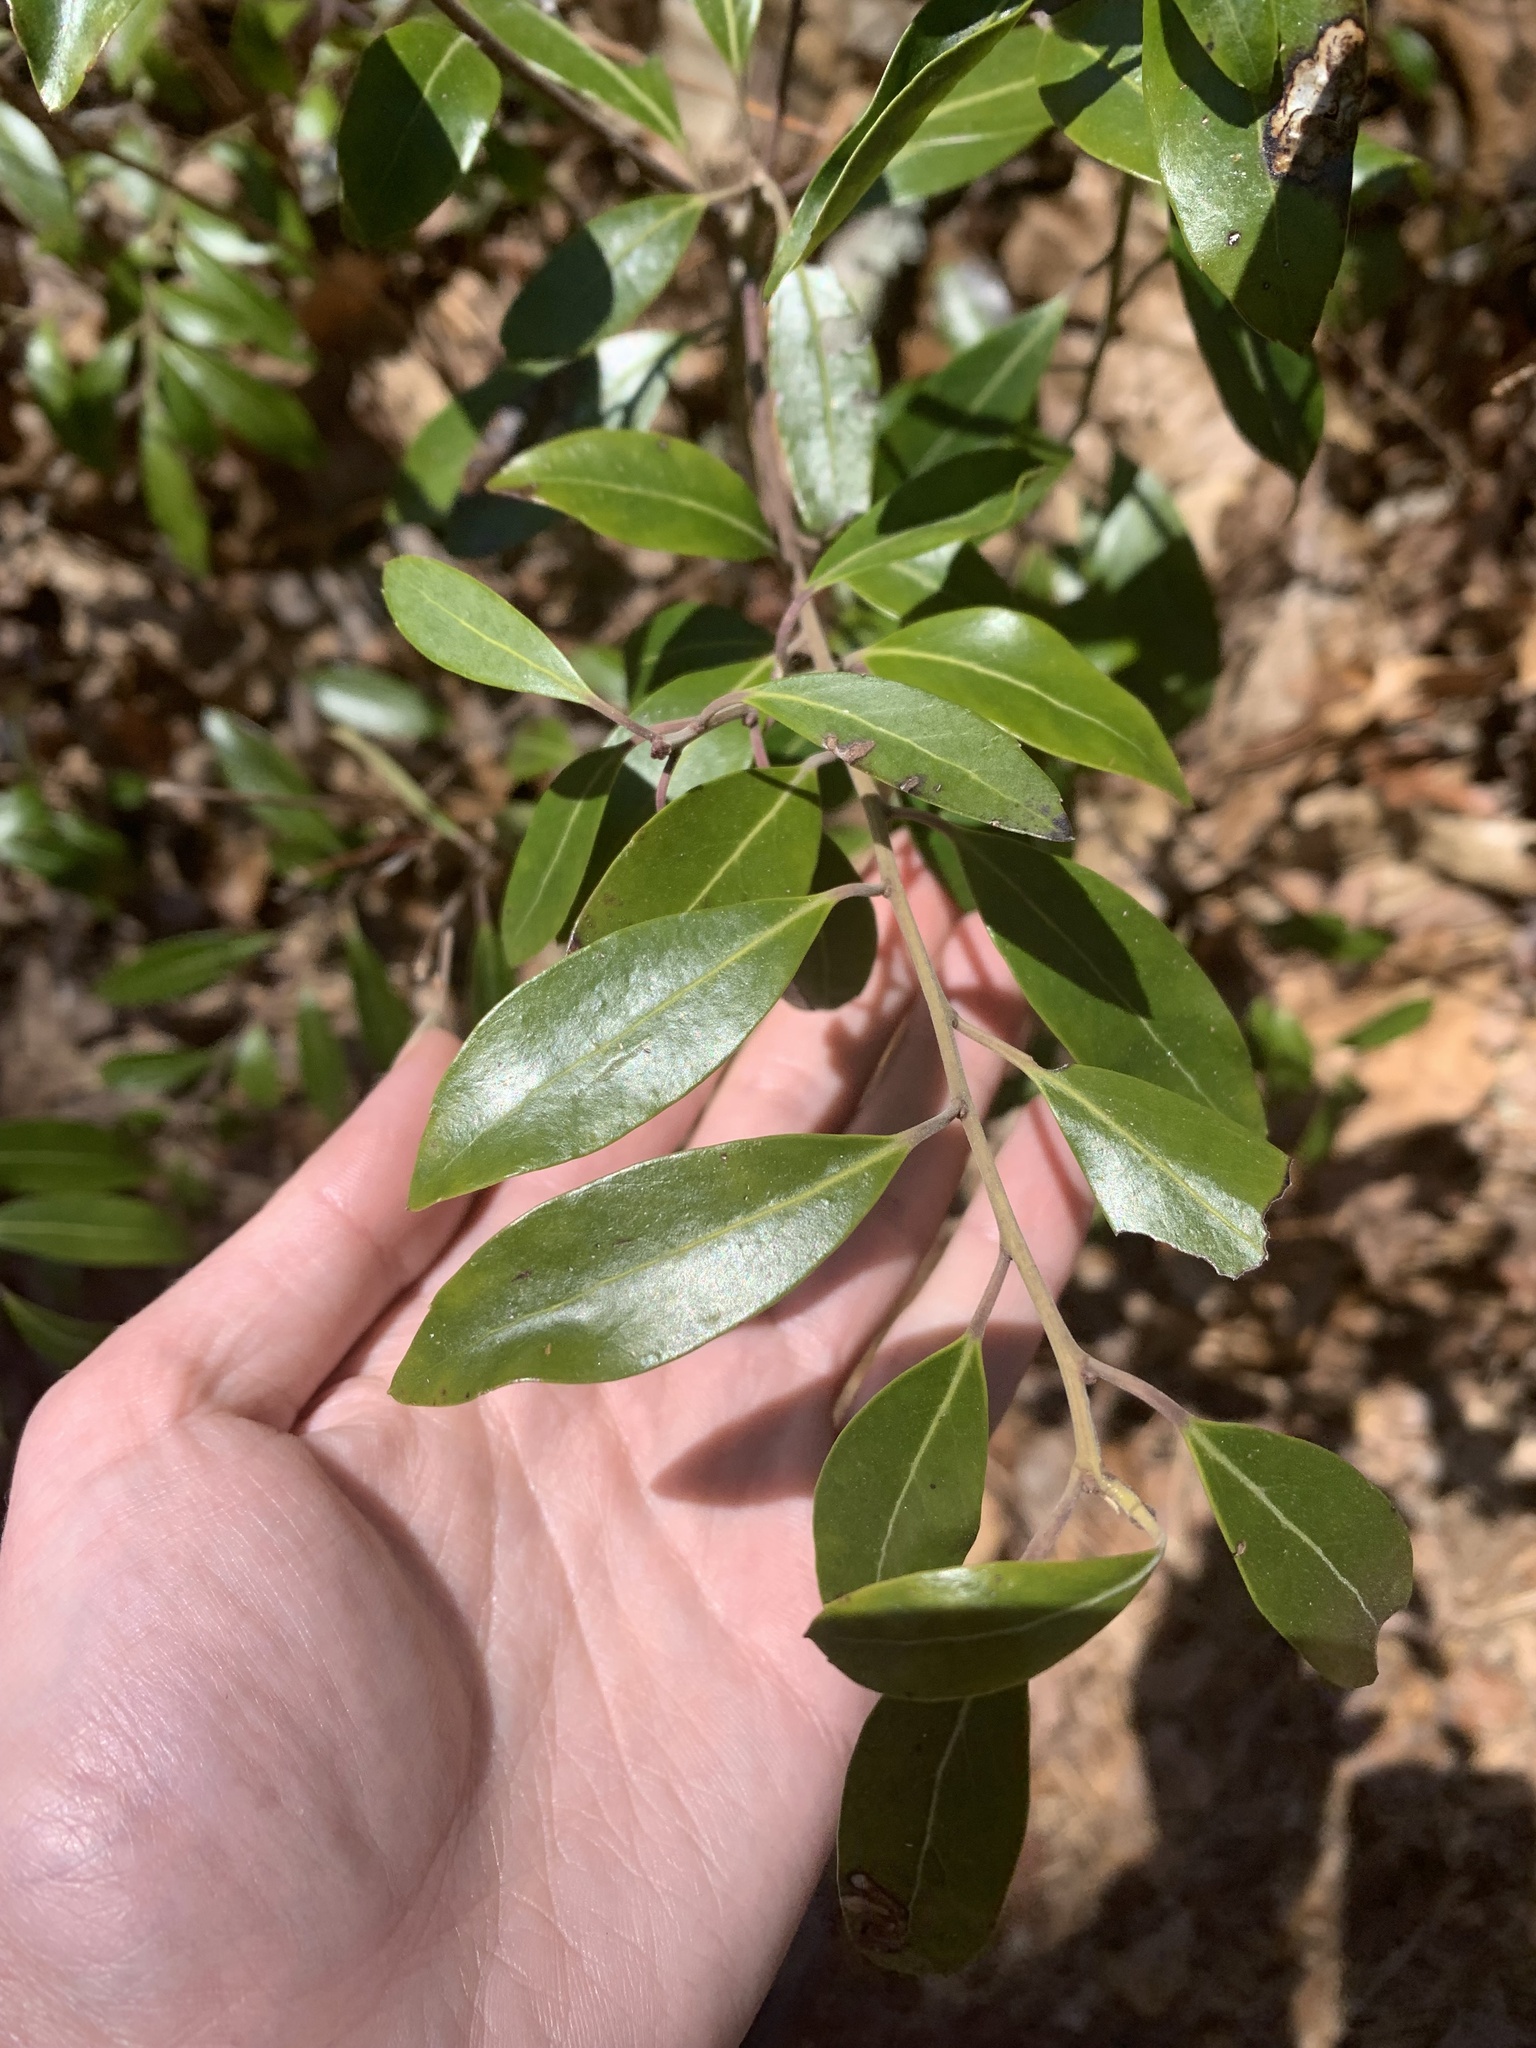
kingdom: Plantae
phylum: Tracheophyta
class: Magnoliopsida
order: Aquifoliales
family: Aquifoliaceae
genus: Ilex
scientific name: Ilex glabra
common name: Bitter gallberry
